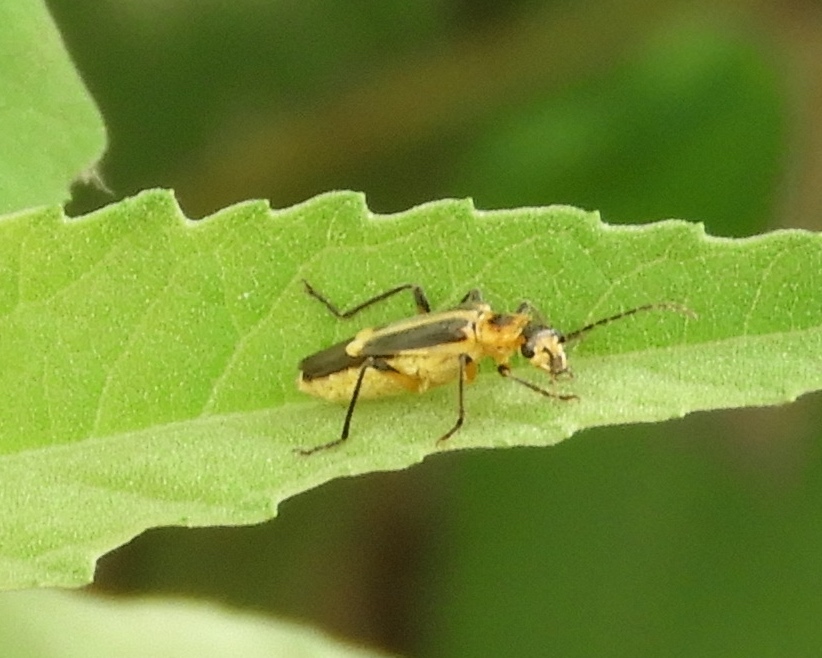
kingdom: Animalia
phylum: Arthropoda
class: Insecta
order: Coleoptera
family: Cantharidae
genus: Chauliognathus
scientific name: Chauliognathus
